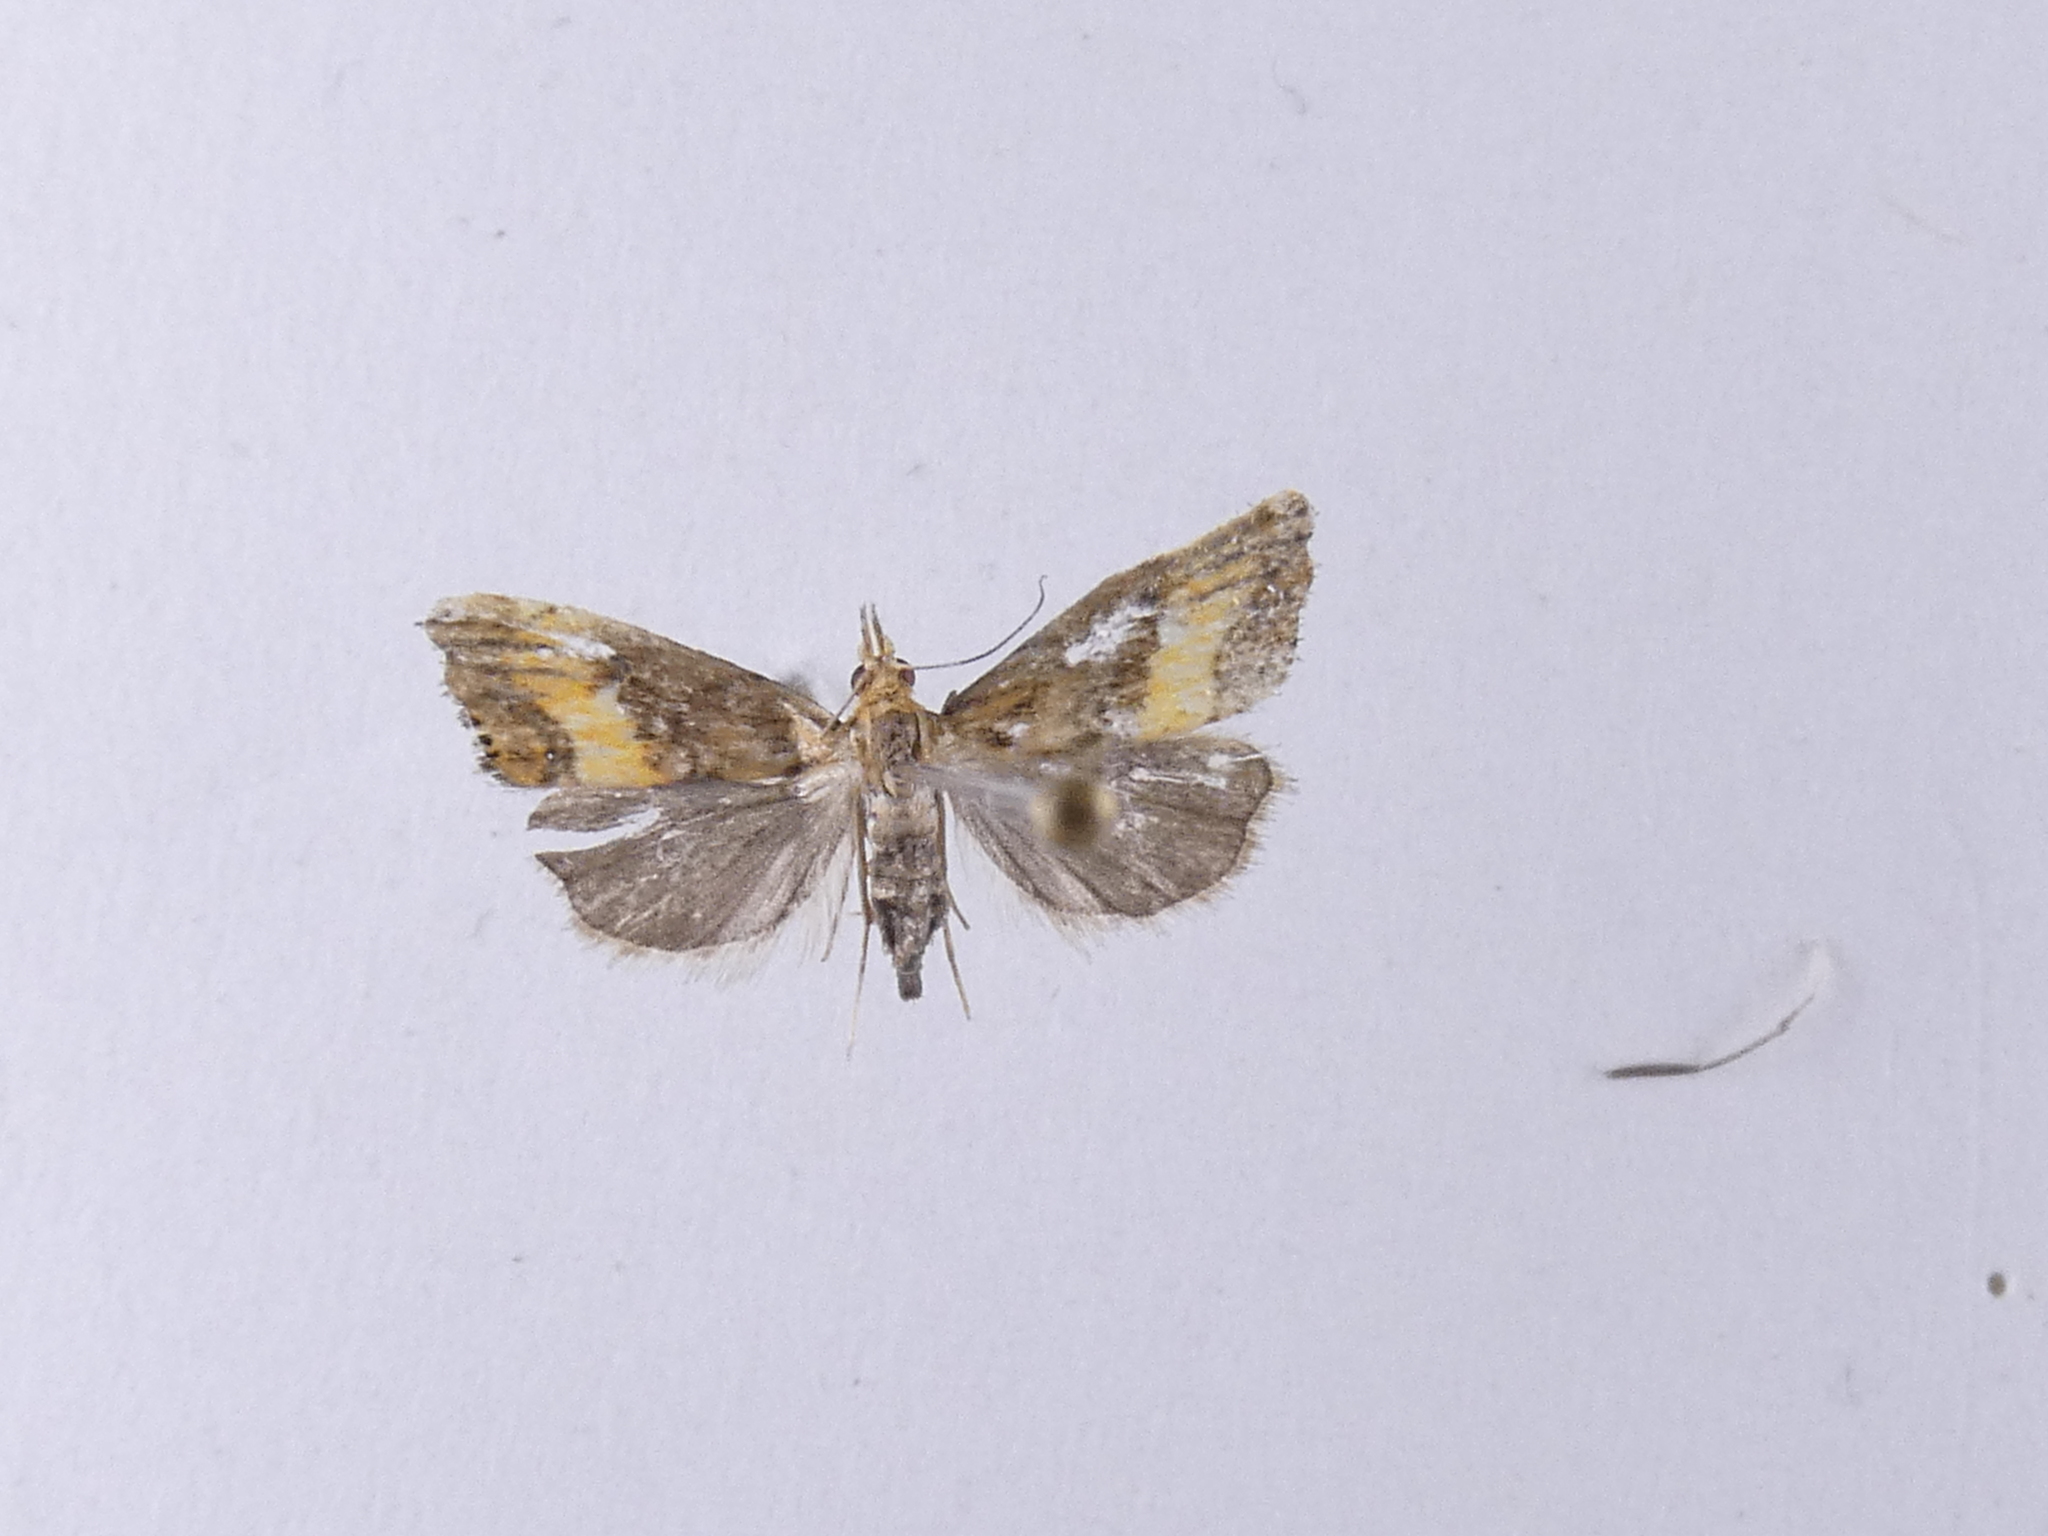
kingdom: Animalia
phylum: Arthropoda
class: Insecta
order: Lepidoptera
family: Crambidae
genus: Glaucocharis
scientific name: Glaucocharis chrysochyta
